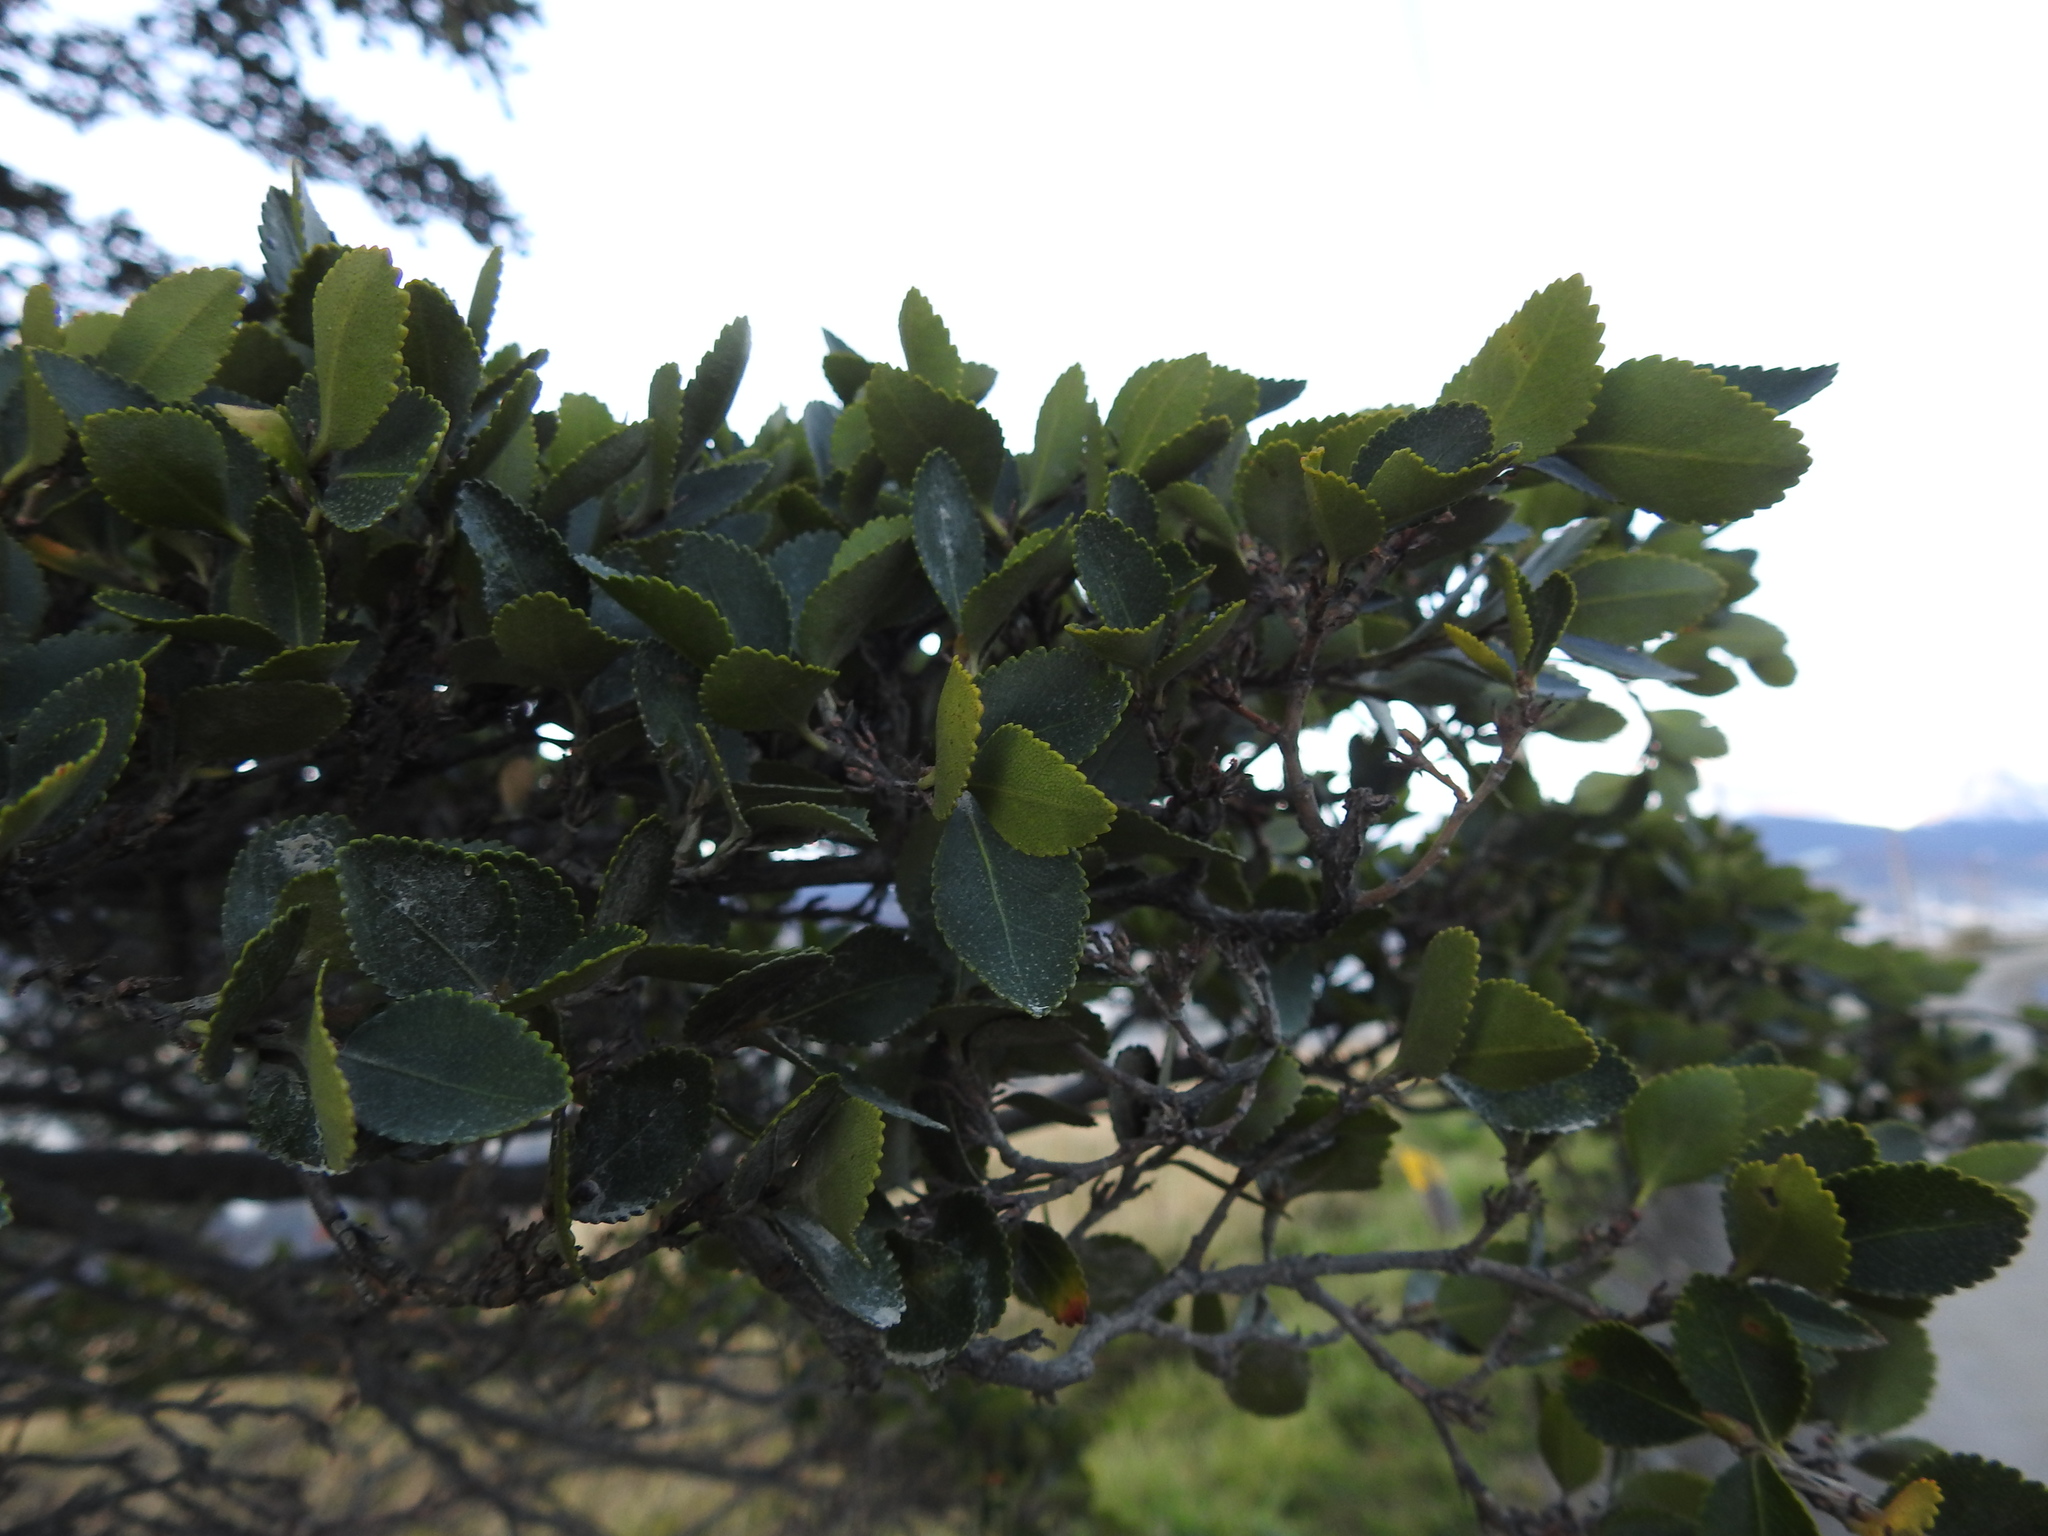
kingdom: Plantae
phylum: Tracheophyta
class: Magnoliopsida
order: Fagales
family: Nothofagaceae
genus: Nothofagus
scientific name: Nothofagus betuloides
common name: Magellan's beech
